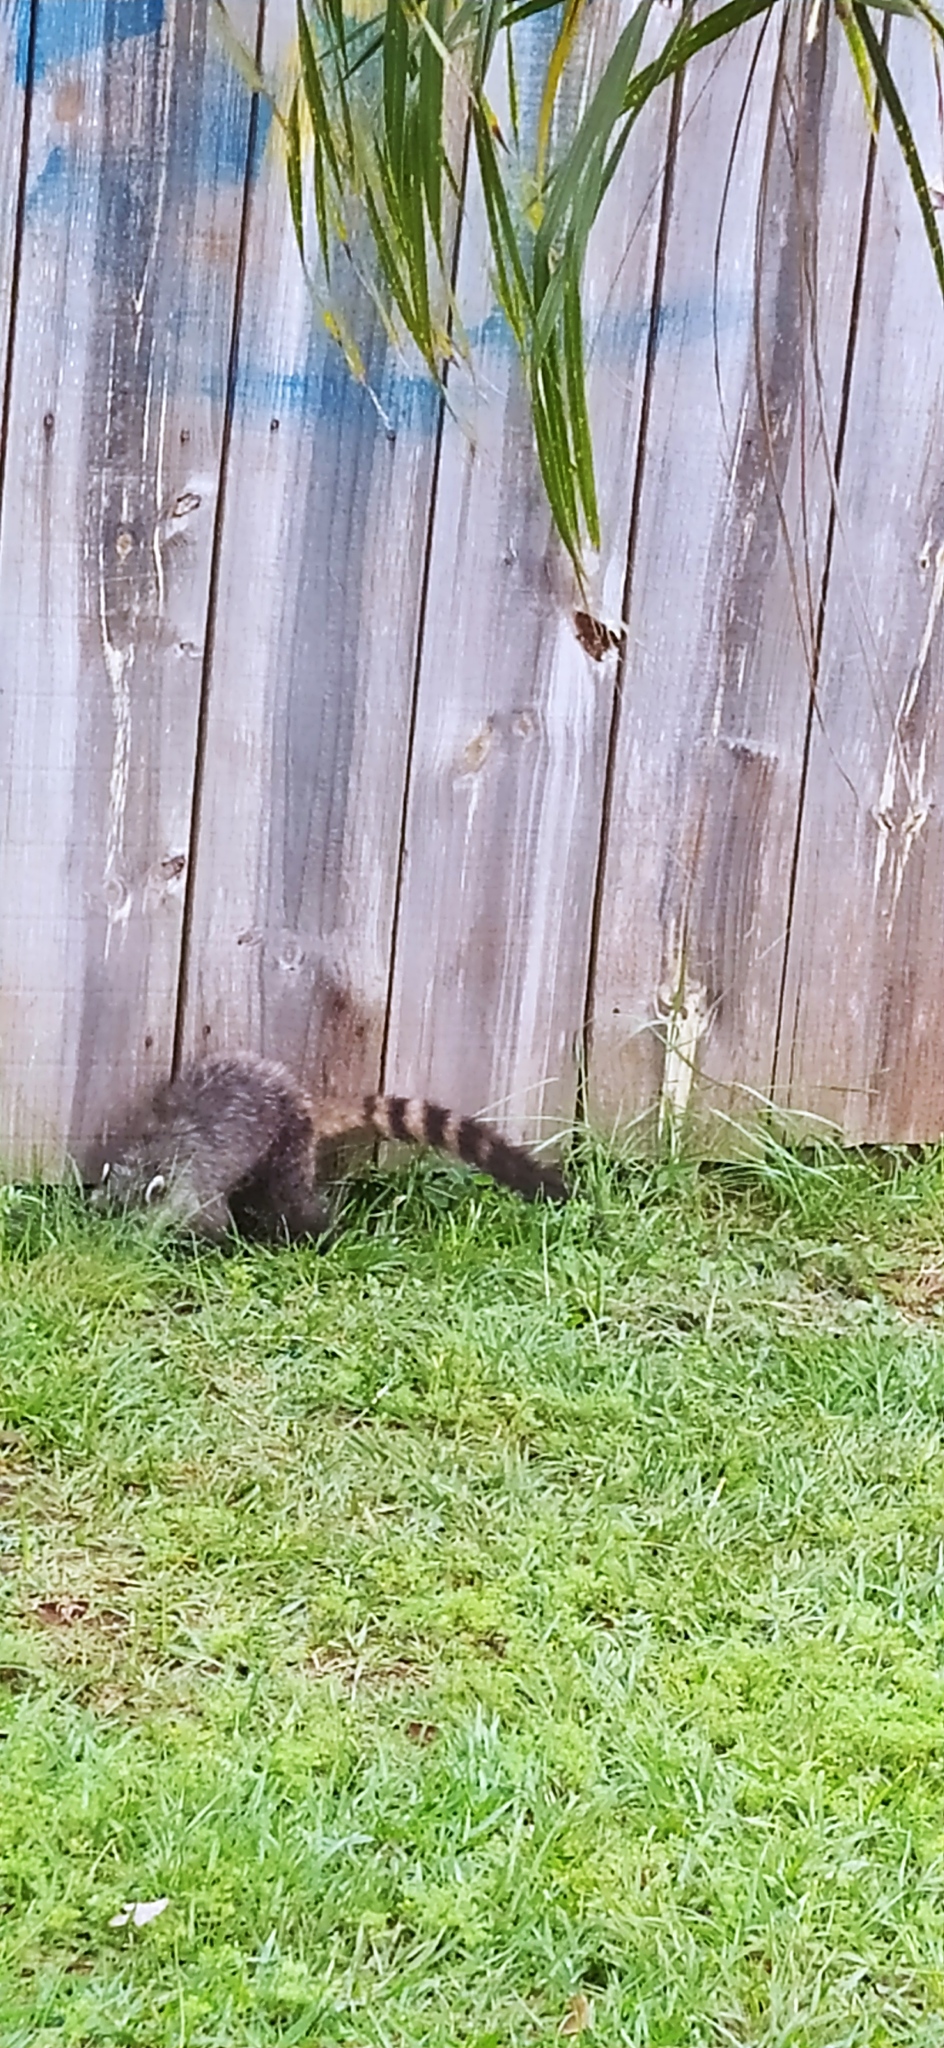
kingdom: Animalia
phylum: Chordata
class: Mammalia
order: Carnivora
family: Procyonidae
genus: Nasua
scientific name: Nasua nasua
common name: South american coati
